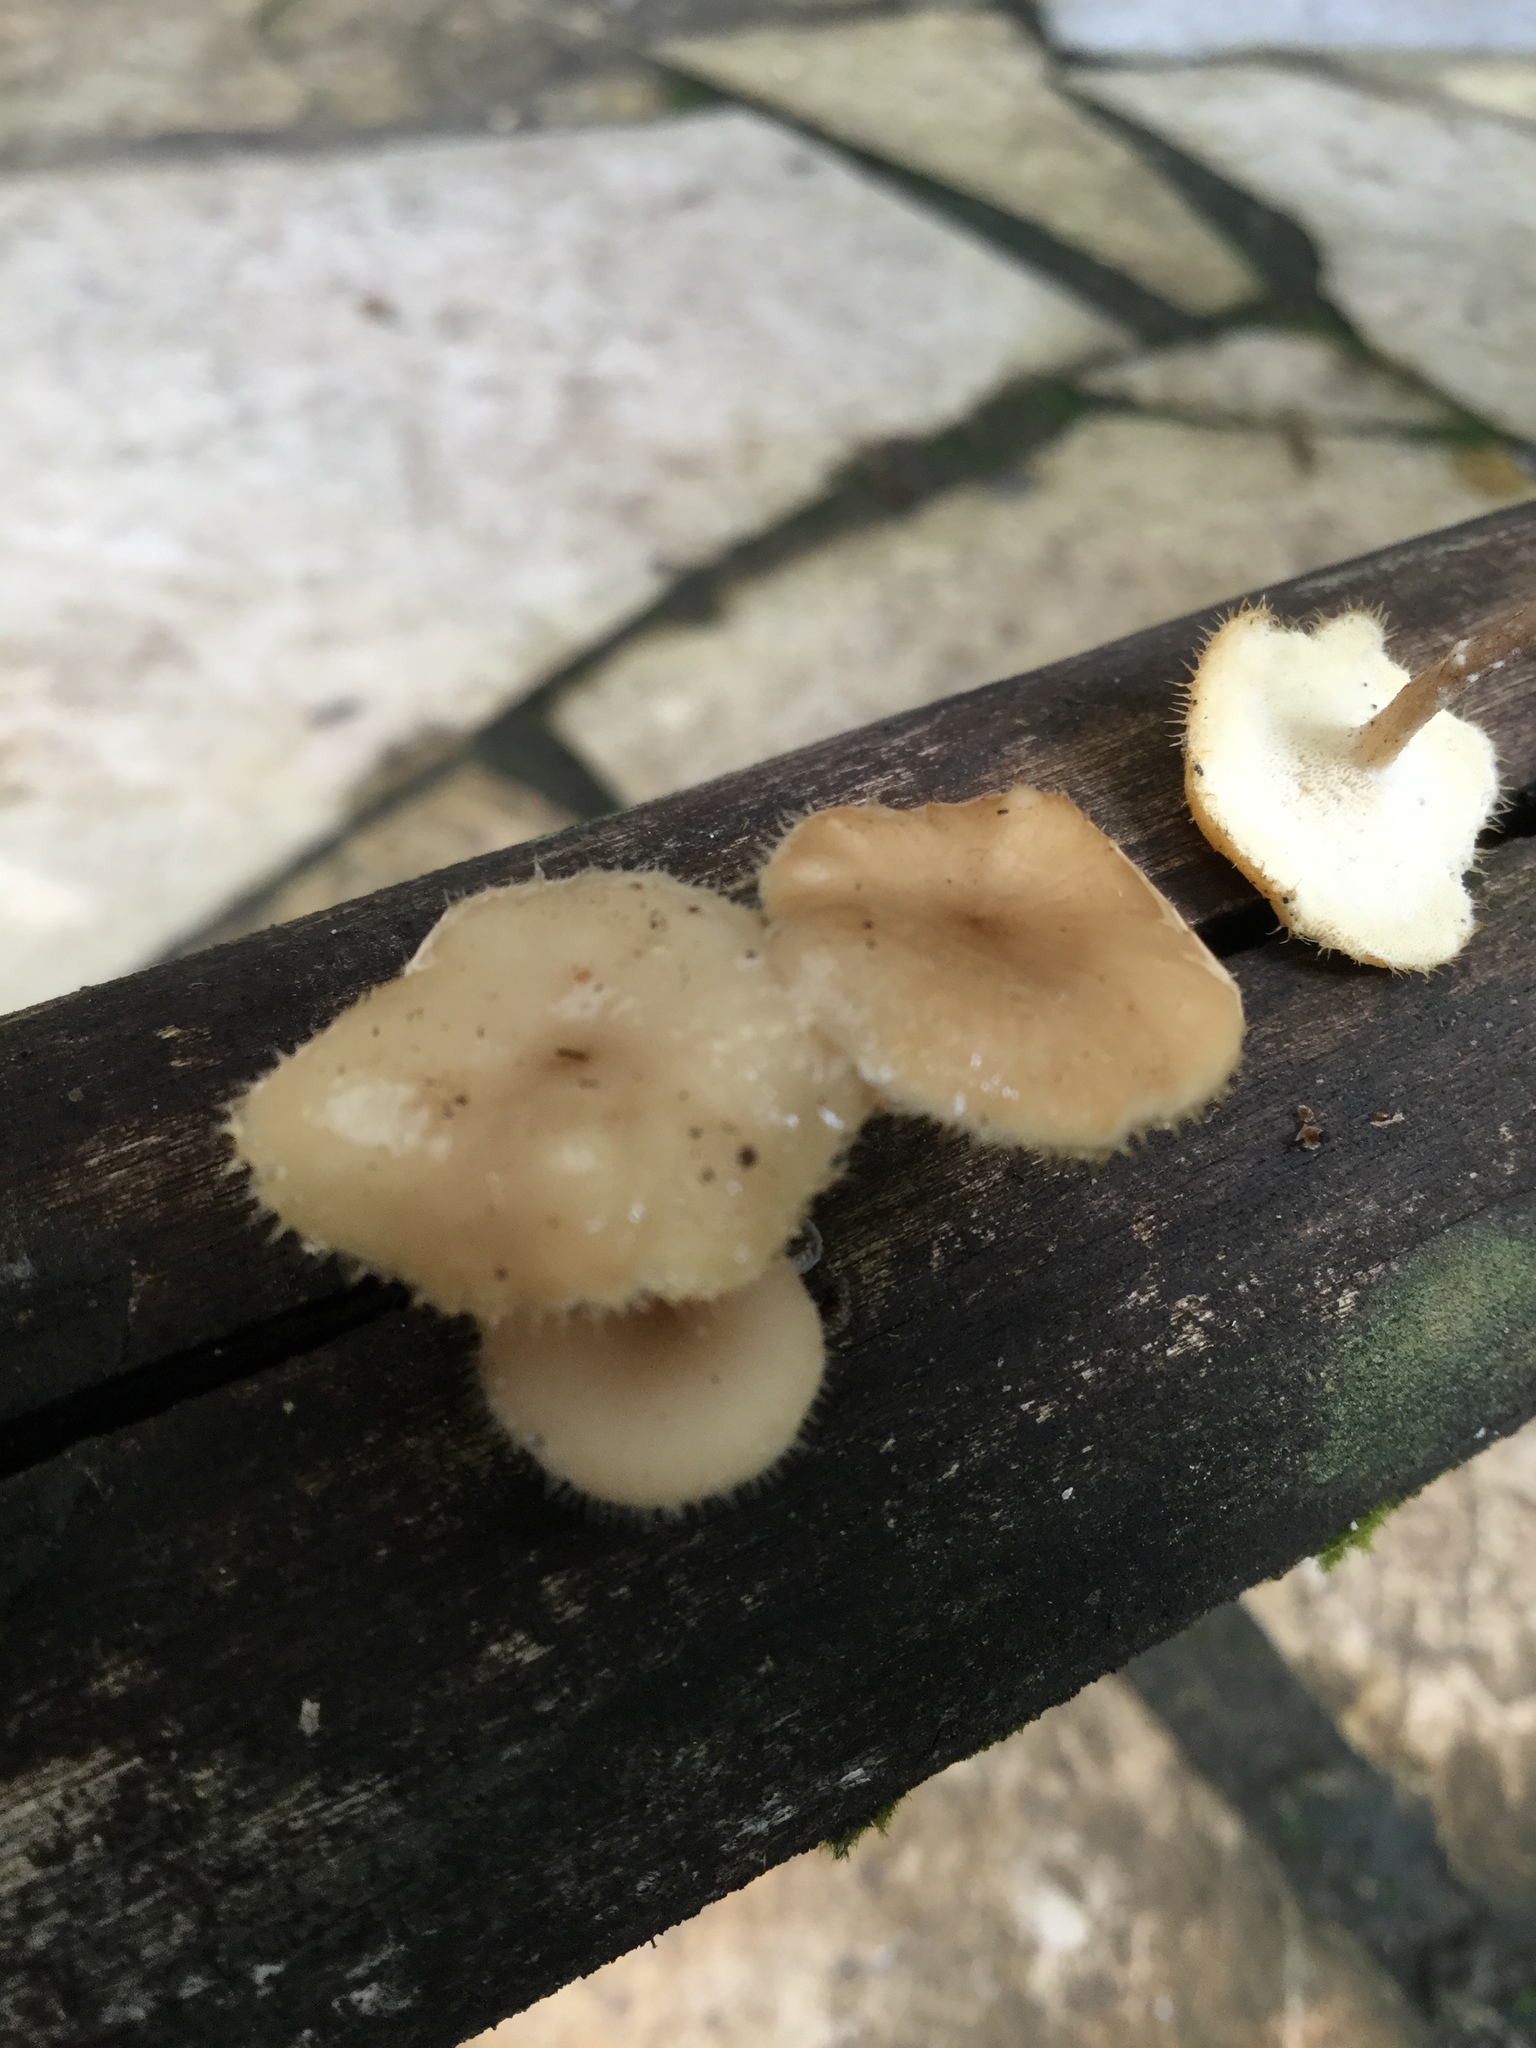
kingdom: Fungi
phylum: Basidiomycota
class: Agaricomycetes
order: Polyporales
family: Polyporaceae
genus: Lentinus
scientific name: Lentinus flexipes
